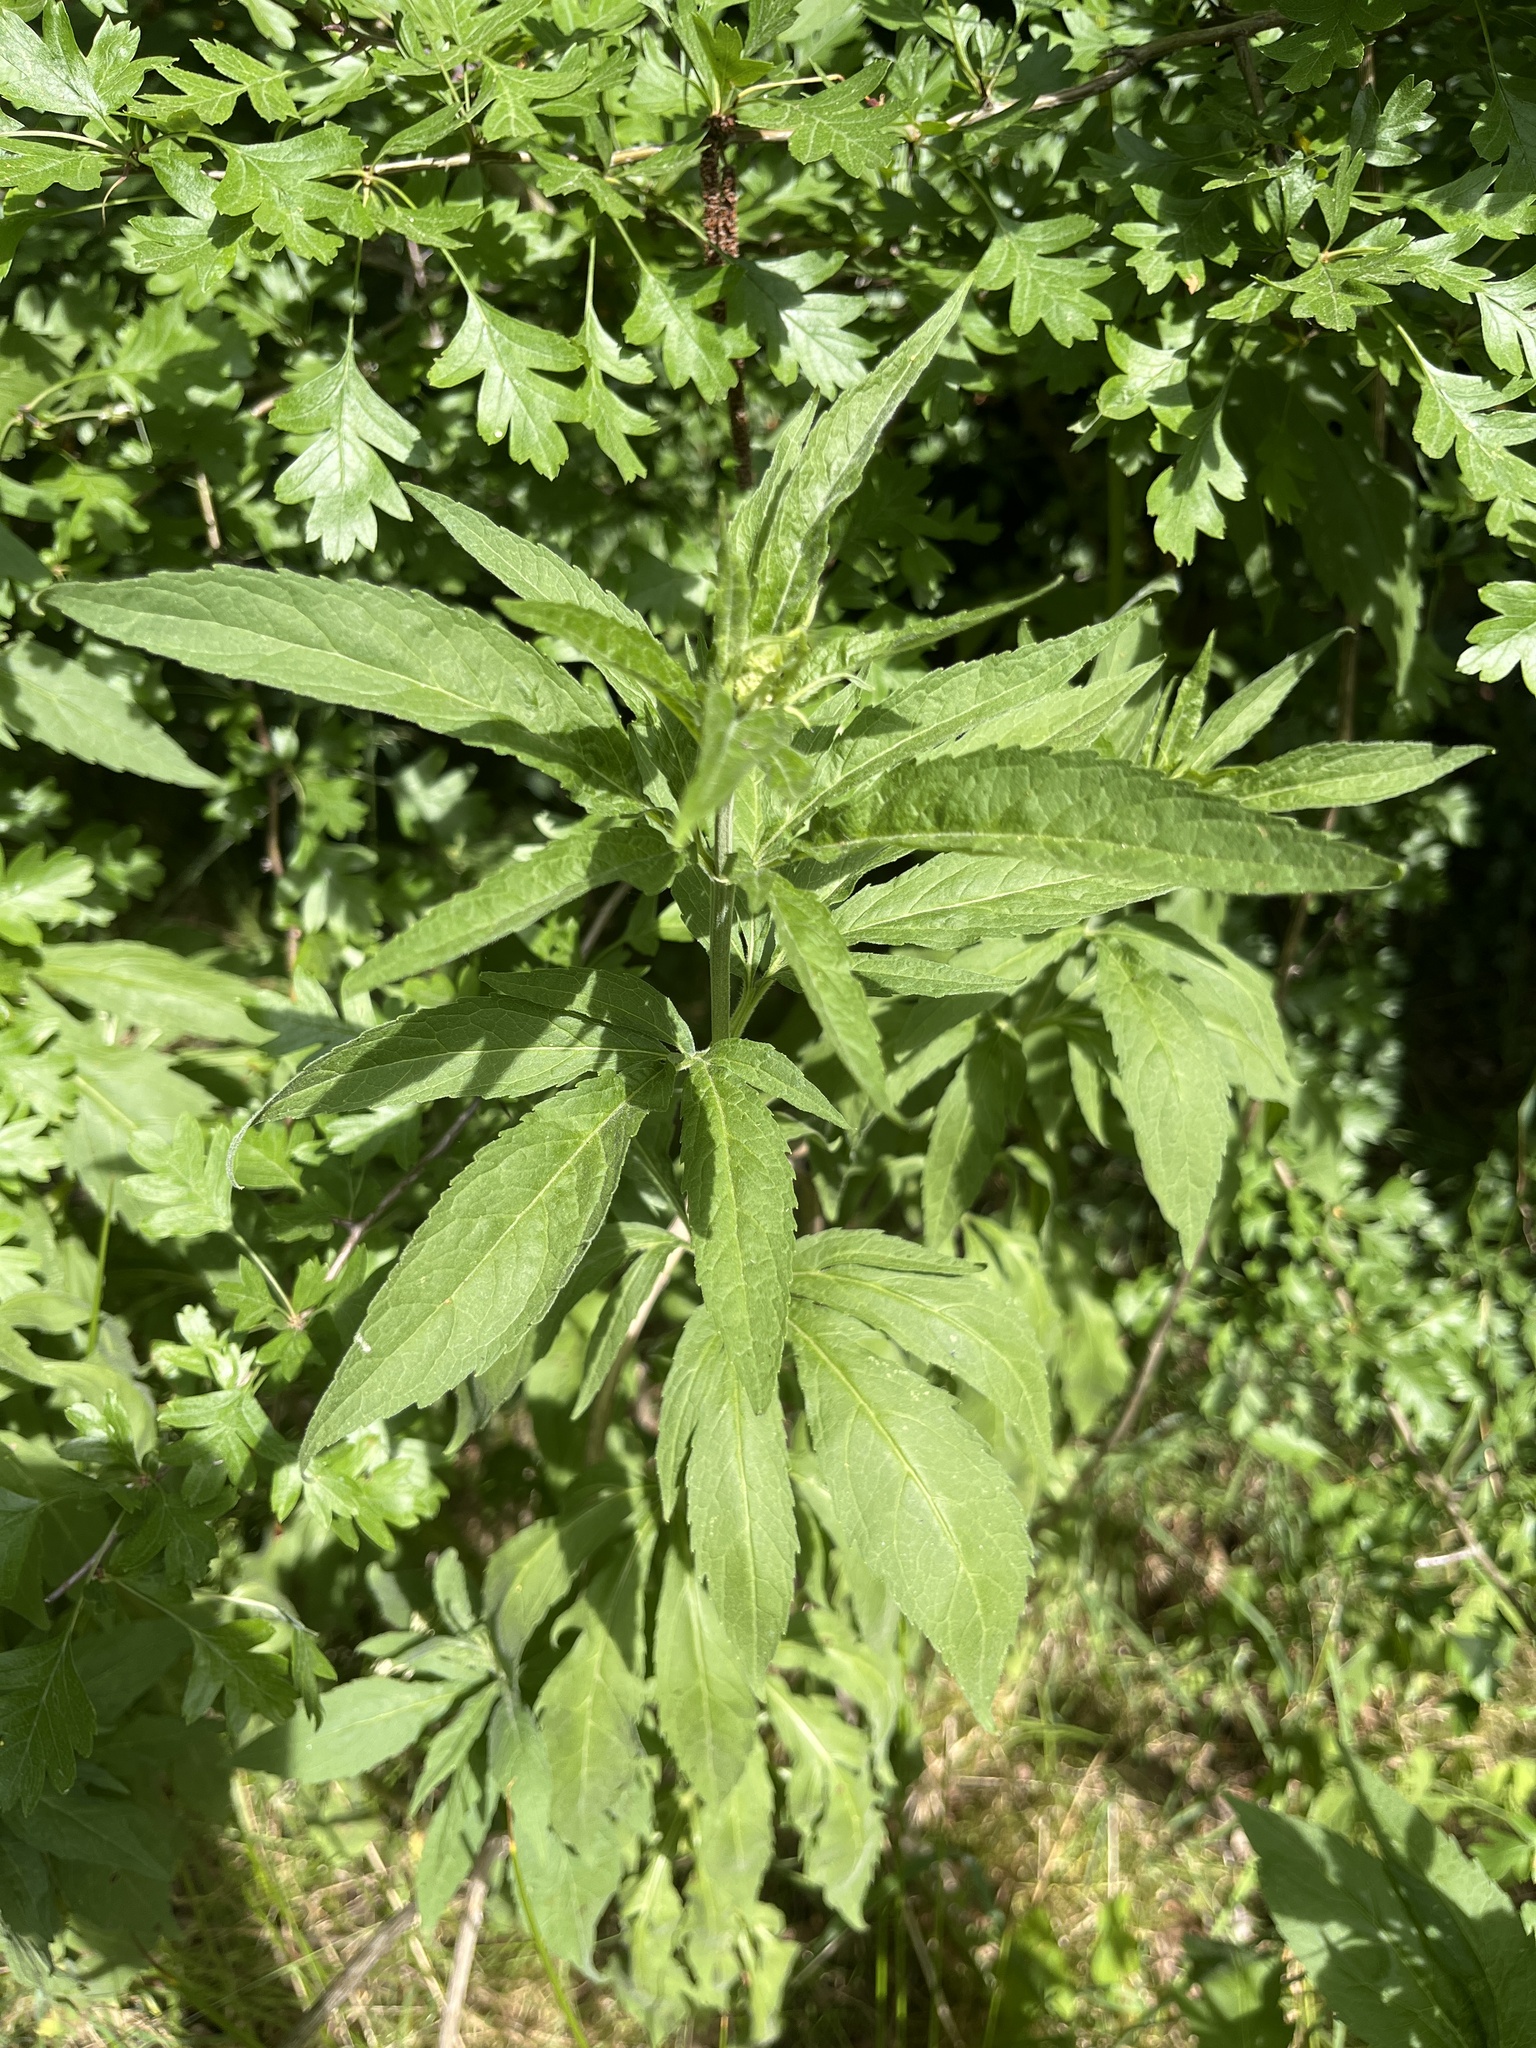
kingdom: Plantae
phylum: Tracheophyta
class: Magnoliopsida
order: Asterales
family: Asteraceae
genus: Eupatorium
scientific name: Eupatorium cannabinum
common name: Hemp-agrimony
